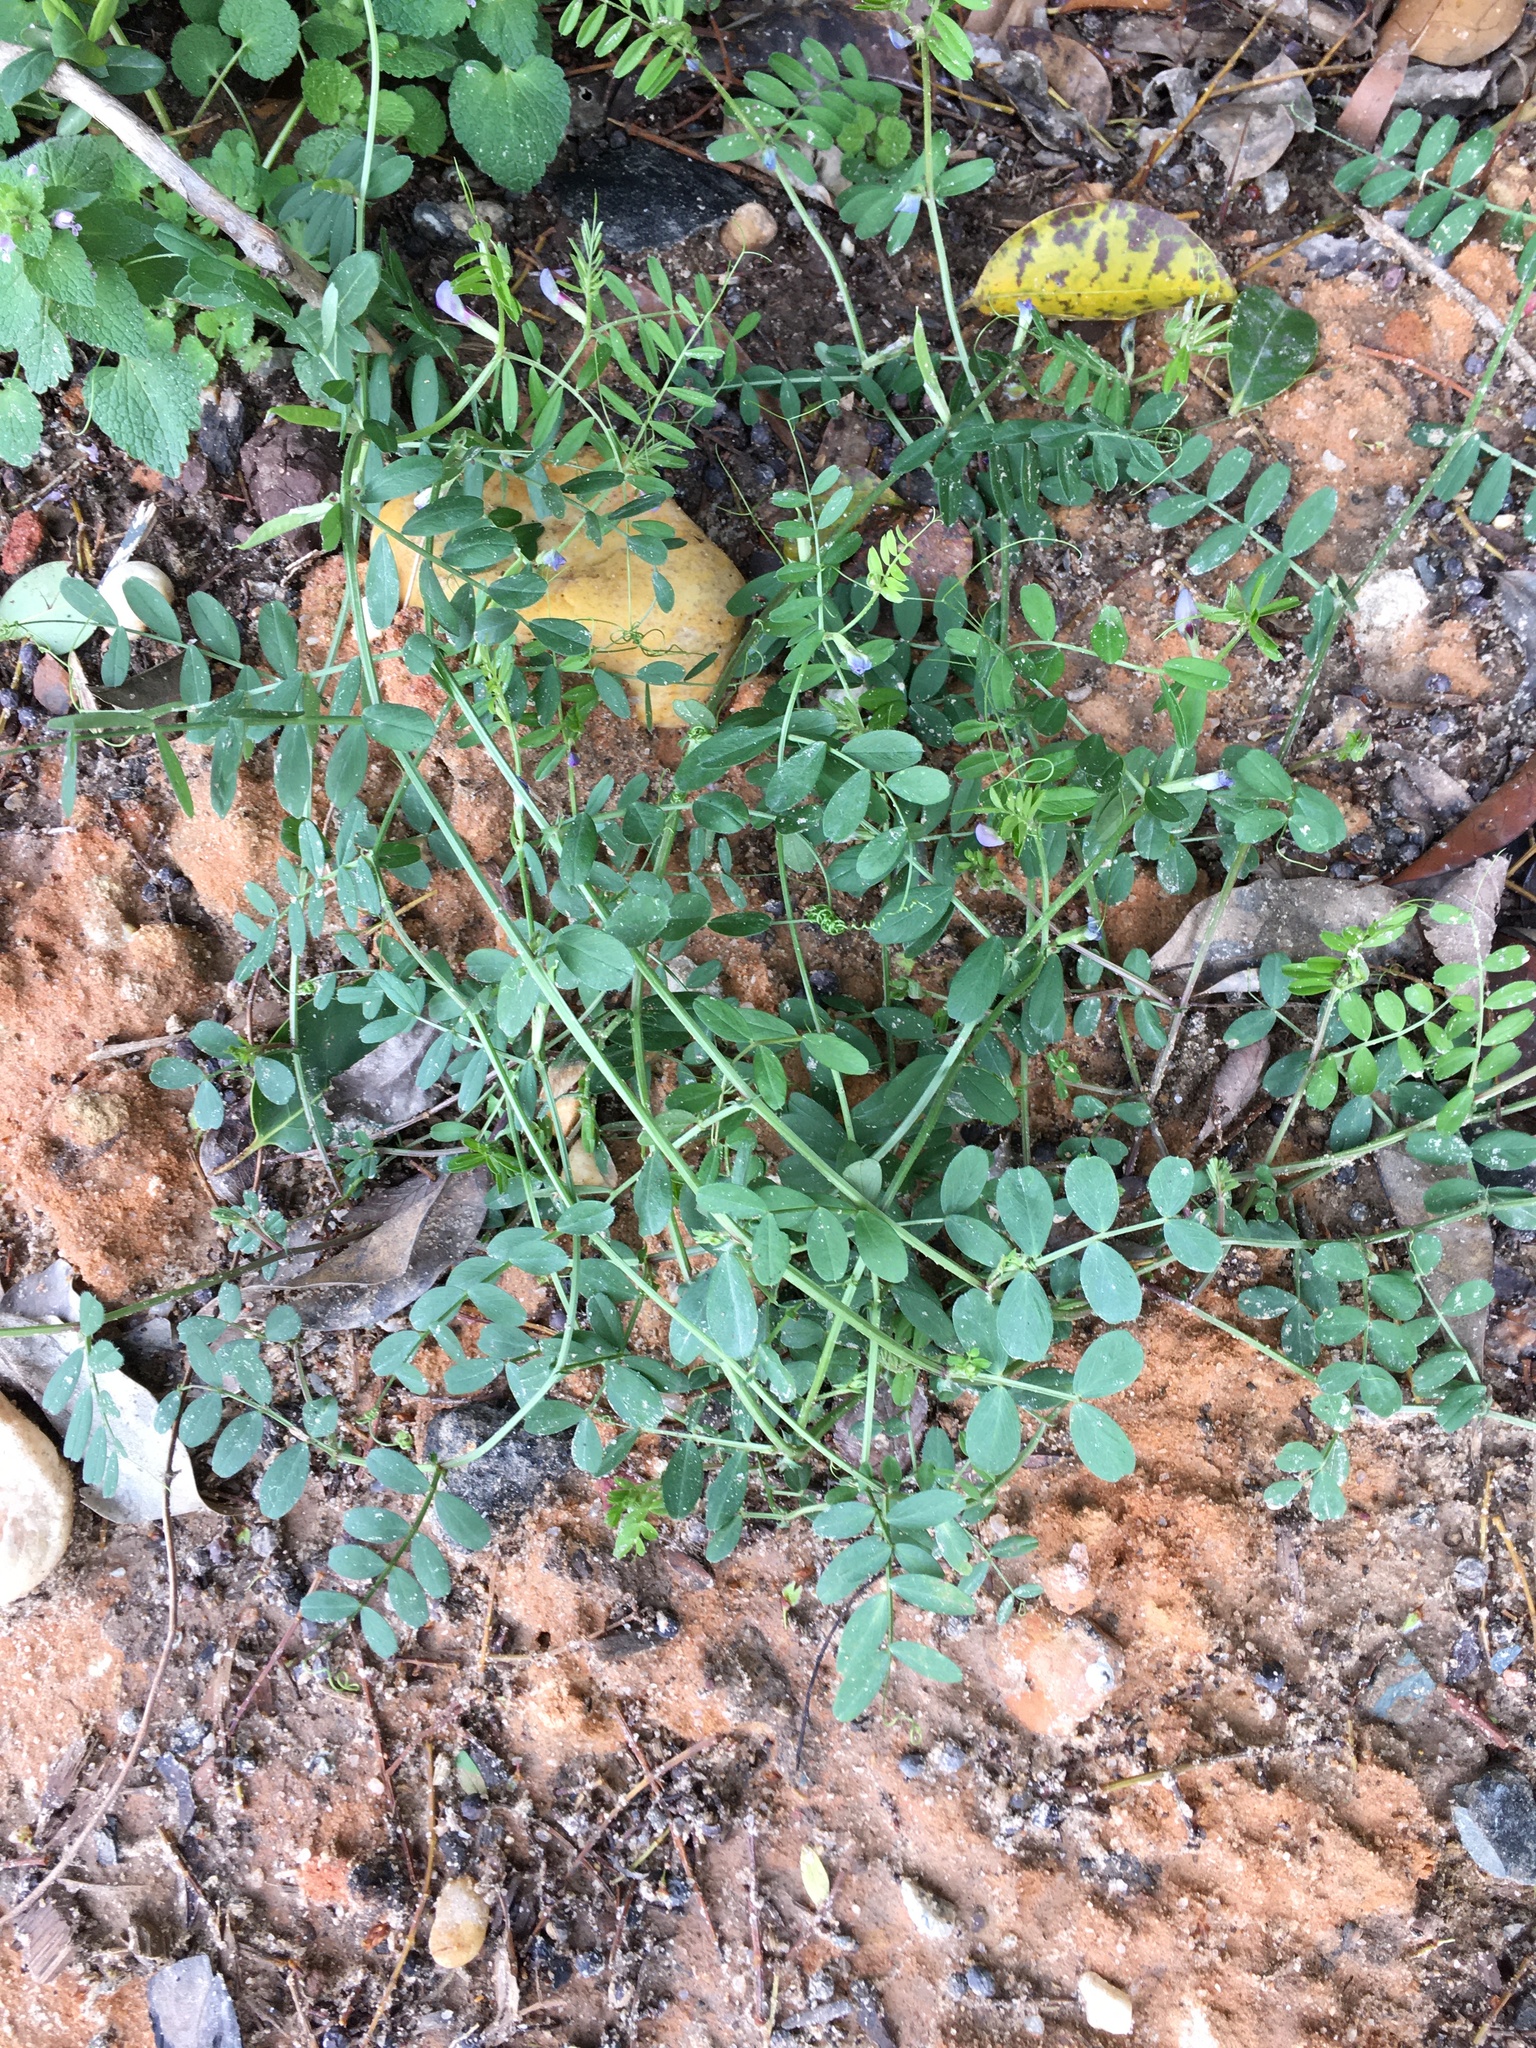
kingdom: Plantae
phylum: Tracheophyta
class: Magnoliopsida
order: Fabales
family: Fabaceae
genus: Vicia
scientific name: Vicia sativa
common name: Garden vetch
